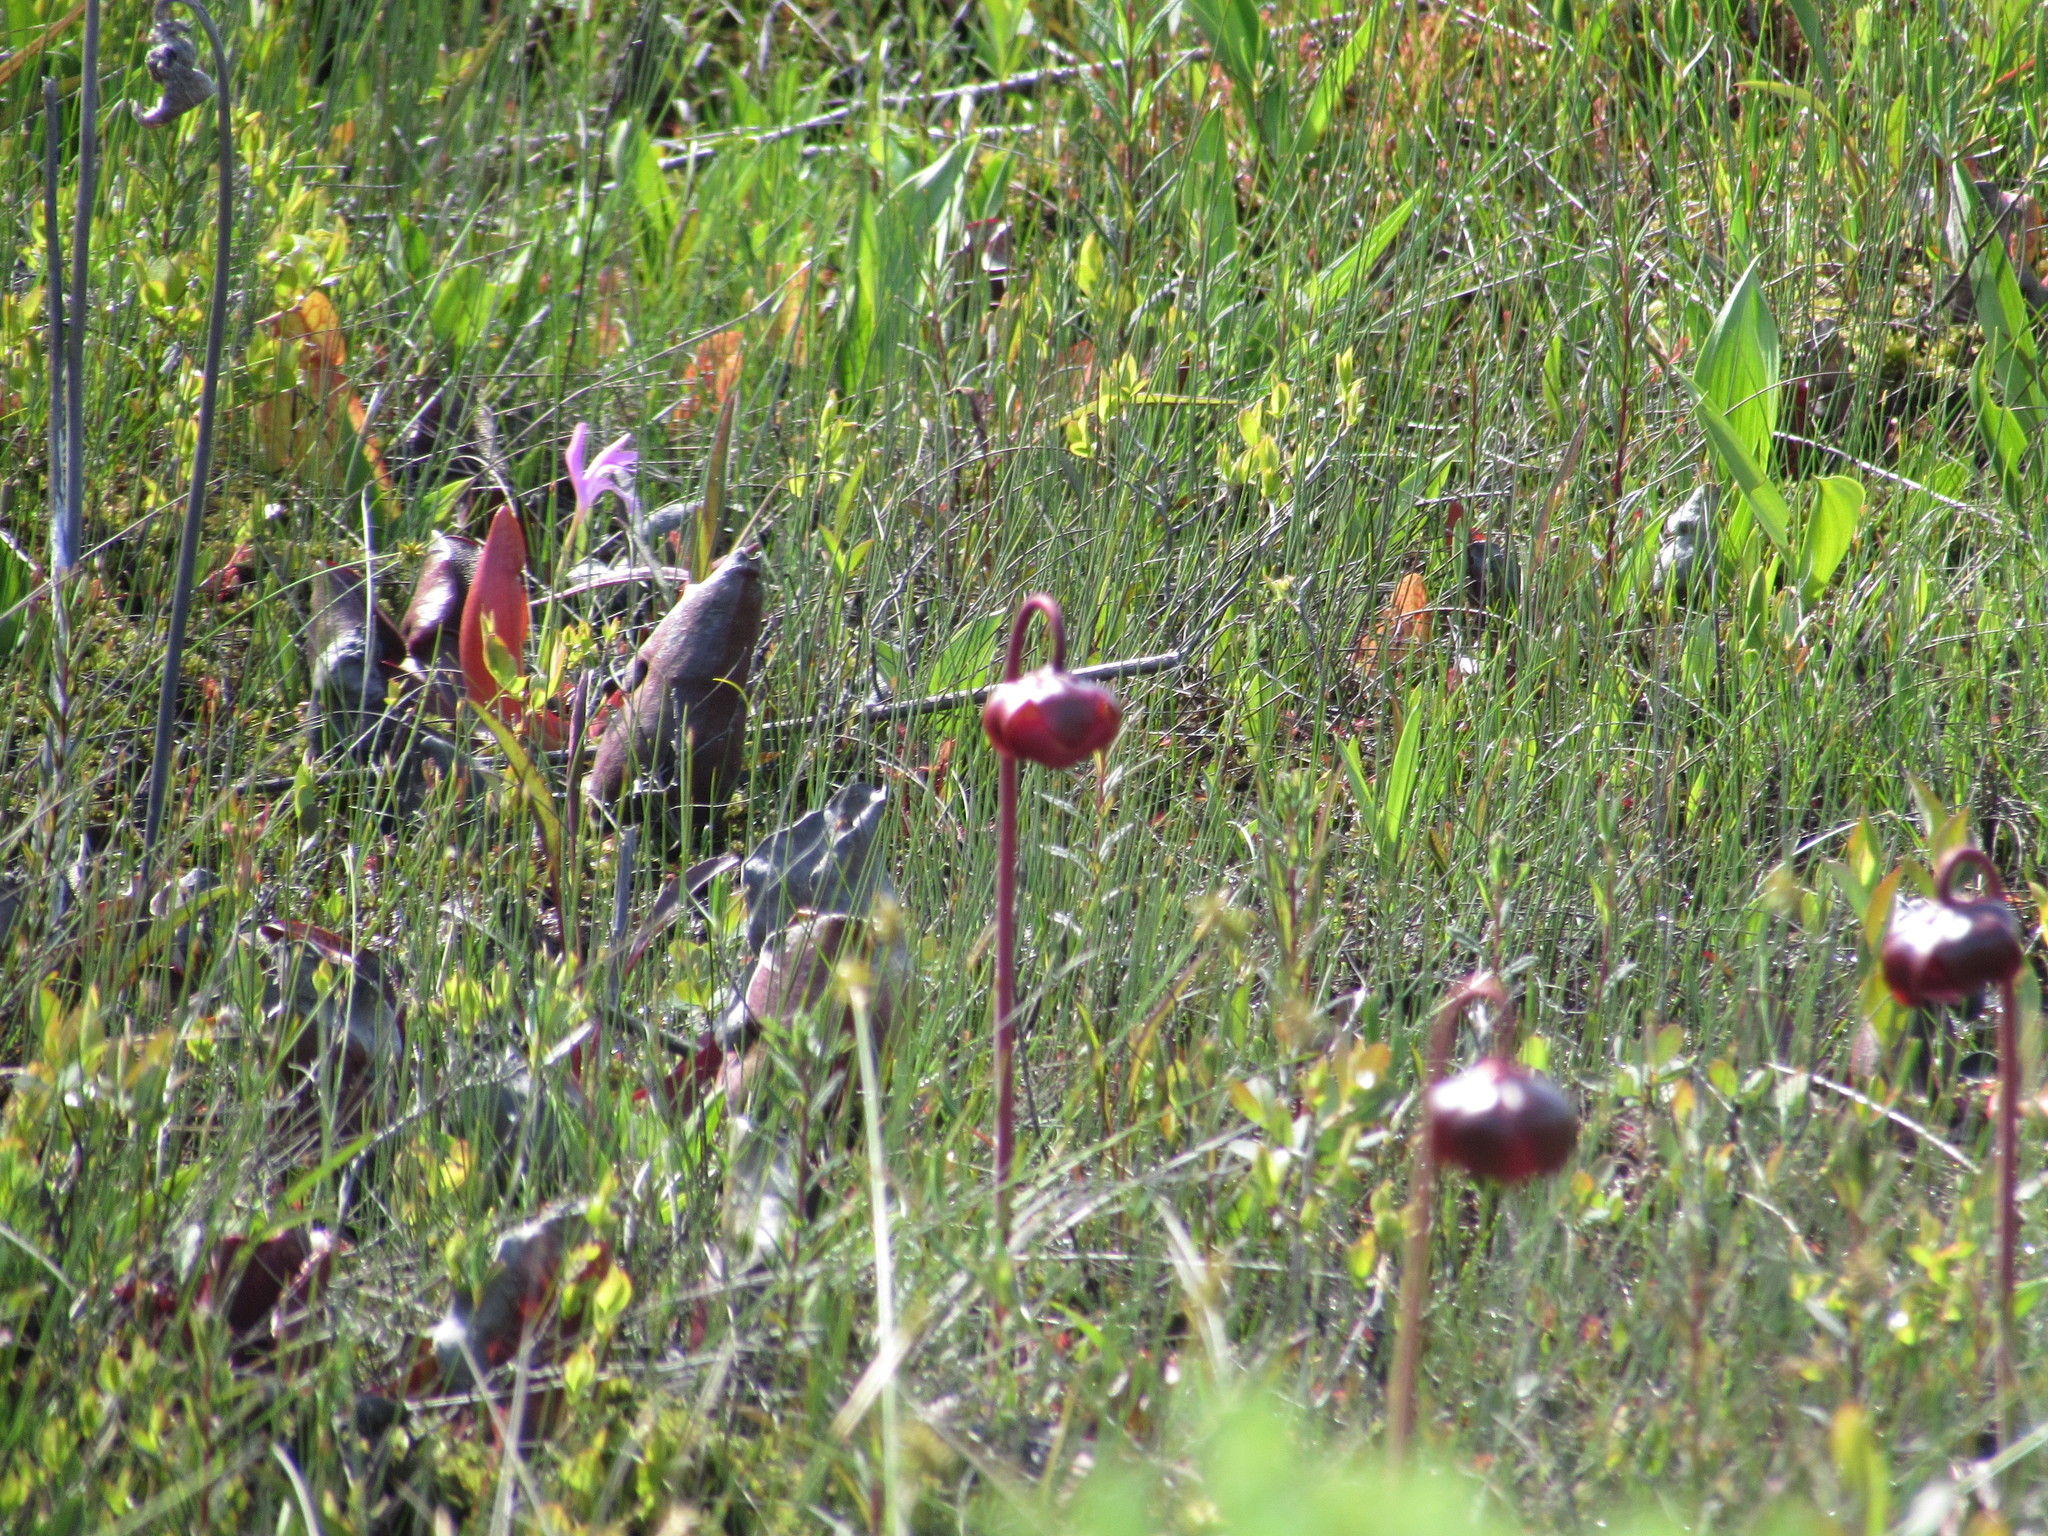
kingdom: Plantae
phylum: Tracheophyta
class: Magnoliopsida
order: Ericales
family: Sarraceniaceae
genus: Sarracenia
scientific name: Sarracenia purpurea
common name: Pitcherplant
